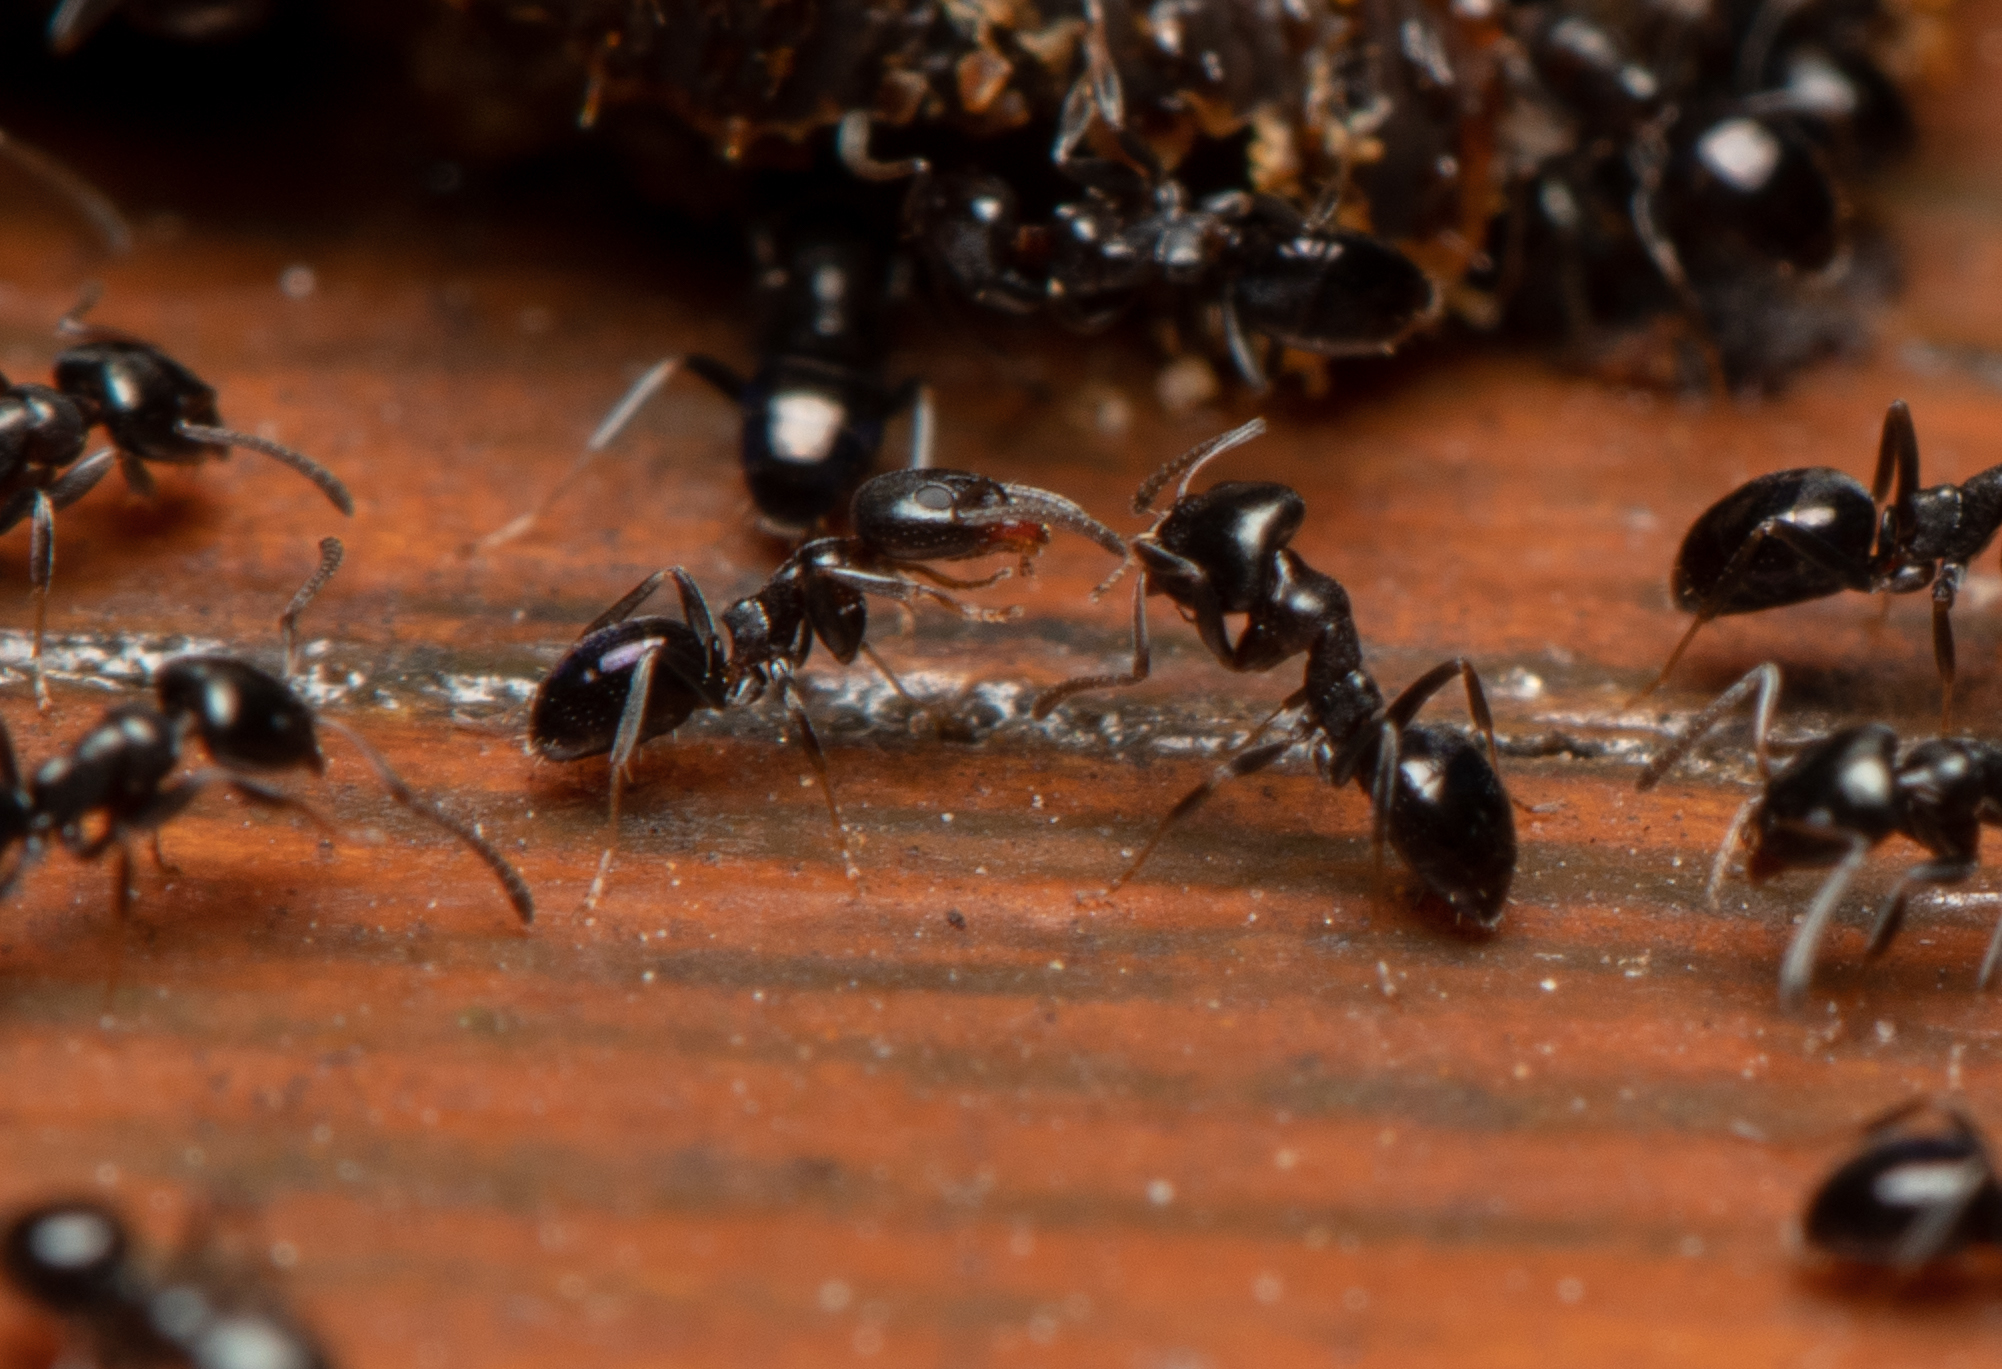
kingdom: Animalia
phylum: Arthropoda
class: Insecta
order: Hymenoptera
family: Formicidae
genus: Ochetellus
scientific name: Ochetellus glaber
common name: Ant
